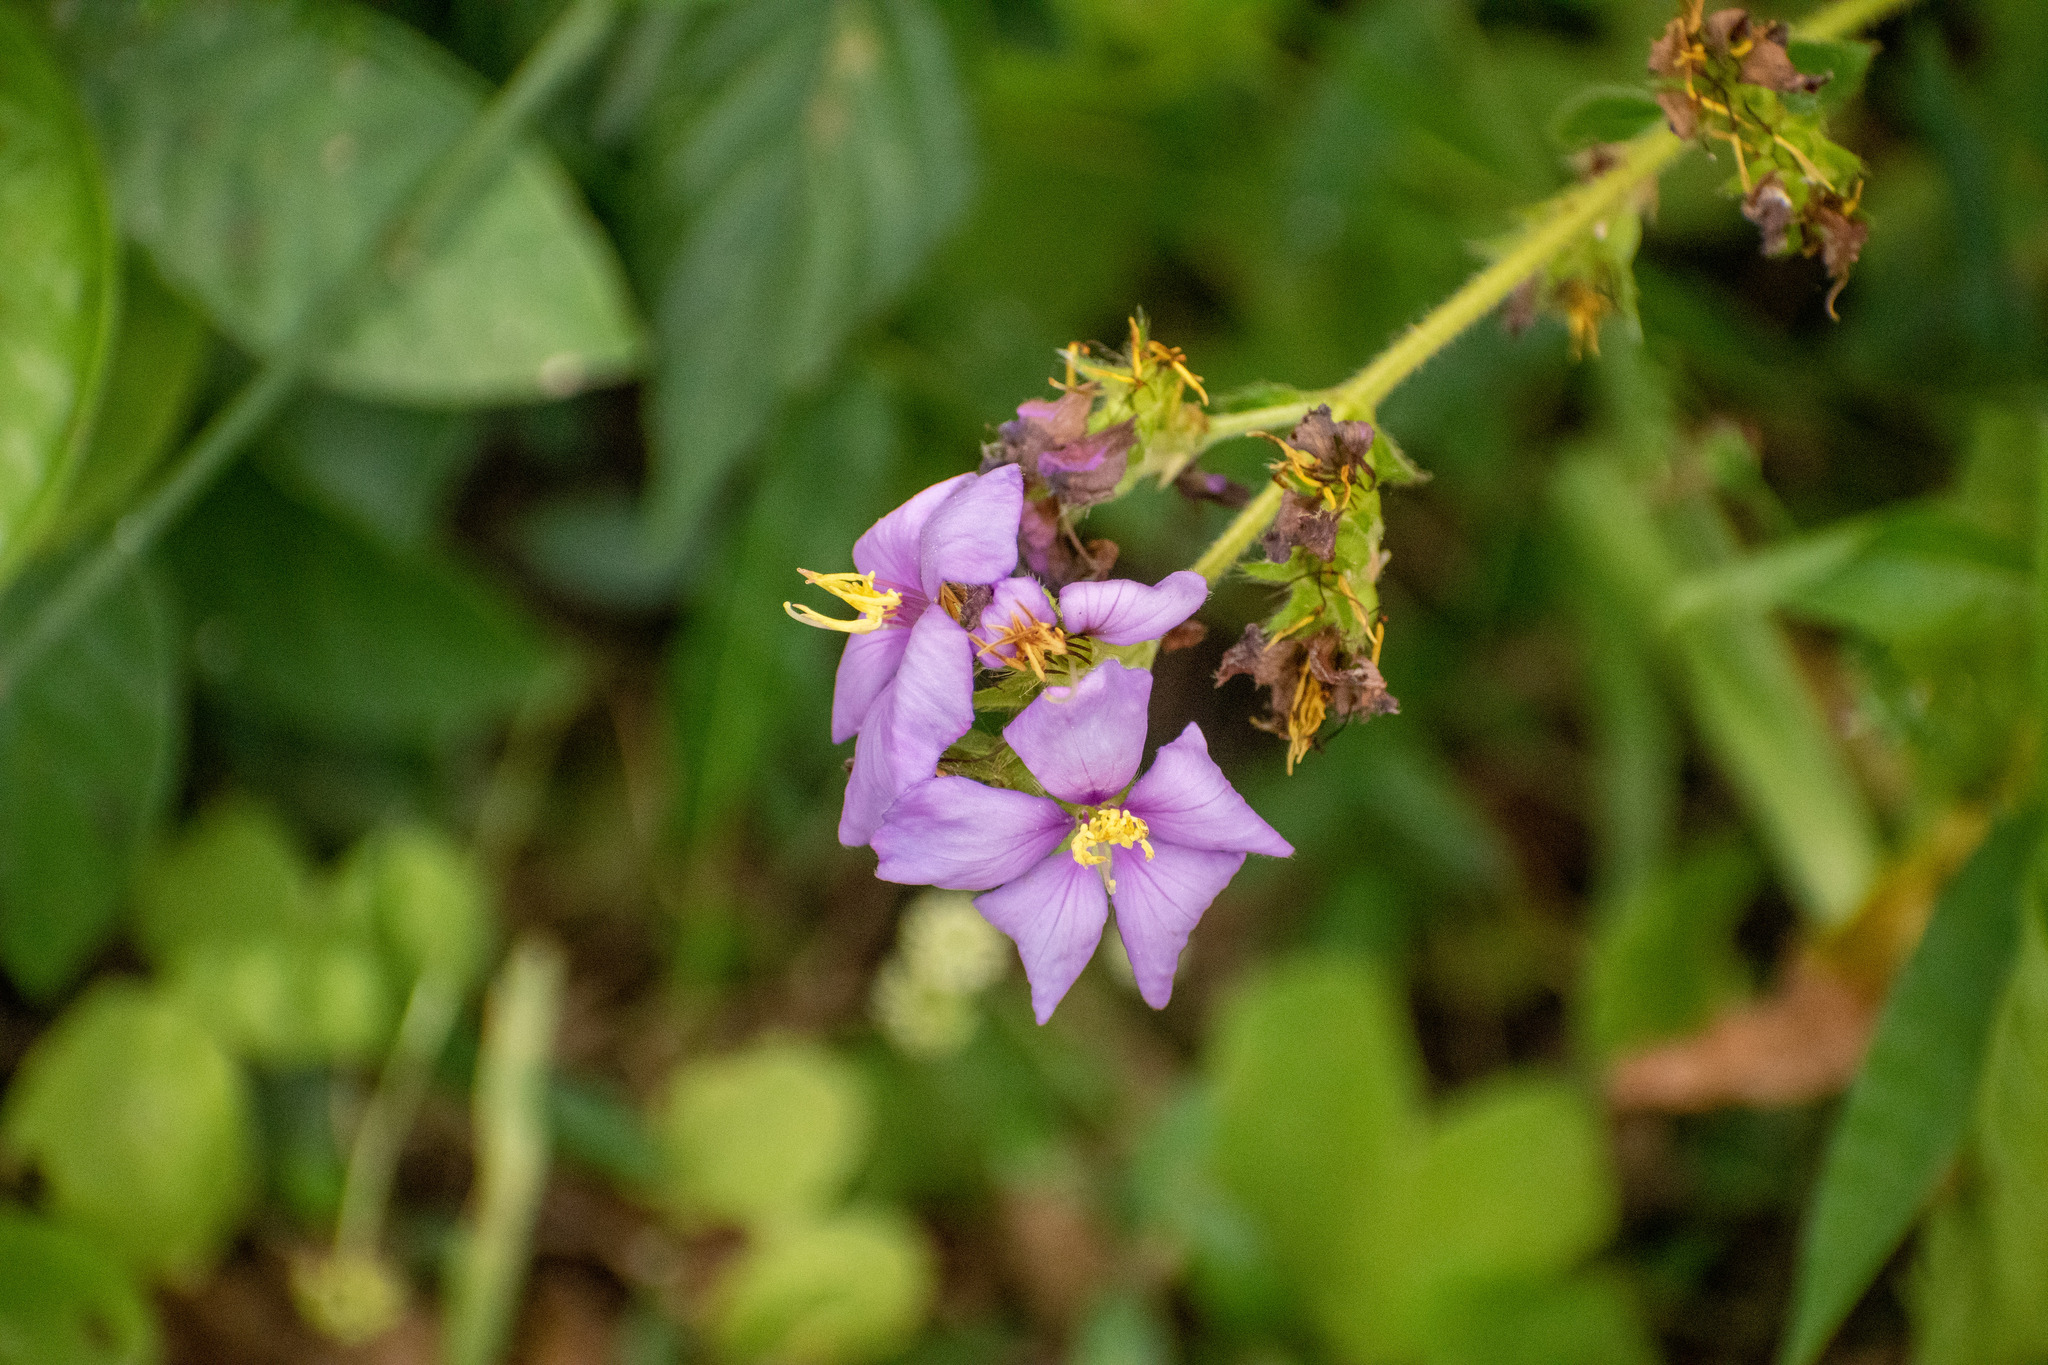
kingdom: Plantae
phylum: Tracheophyta
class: Magnoliopsida
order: Myrtales
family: Melastomataceae
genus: Chaetogastra
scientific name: Chaetogastra gracilis
